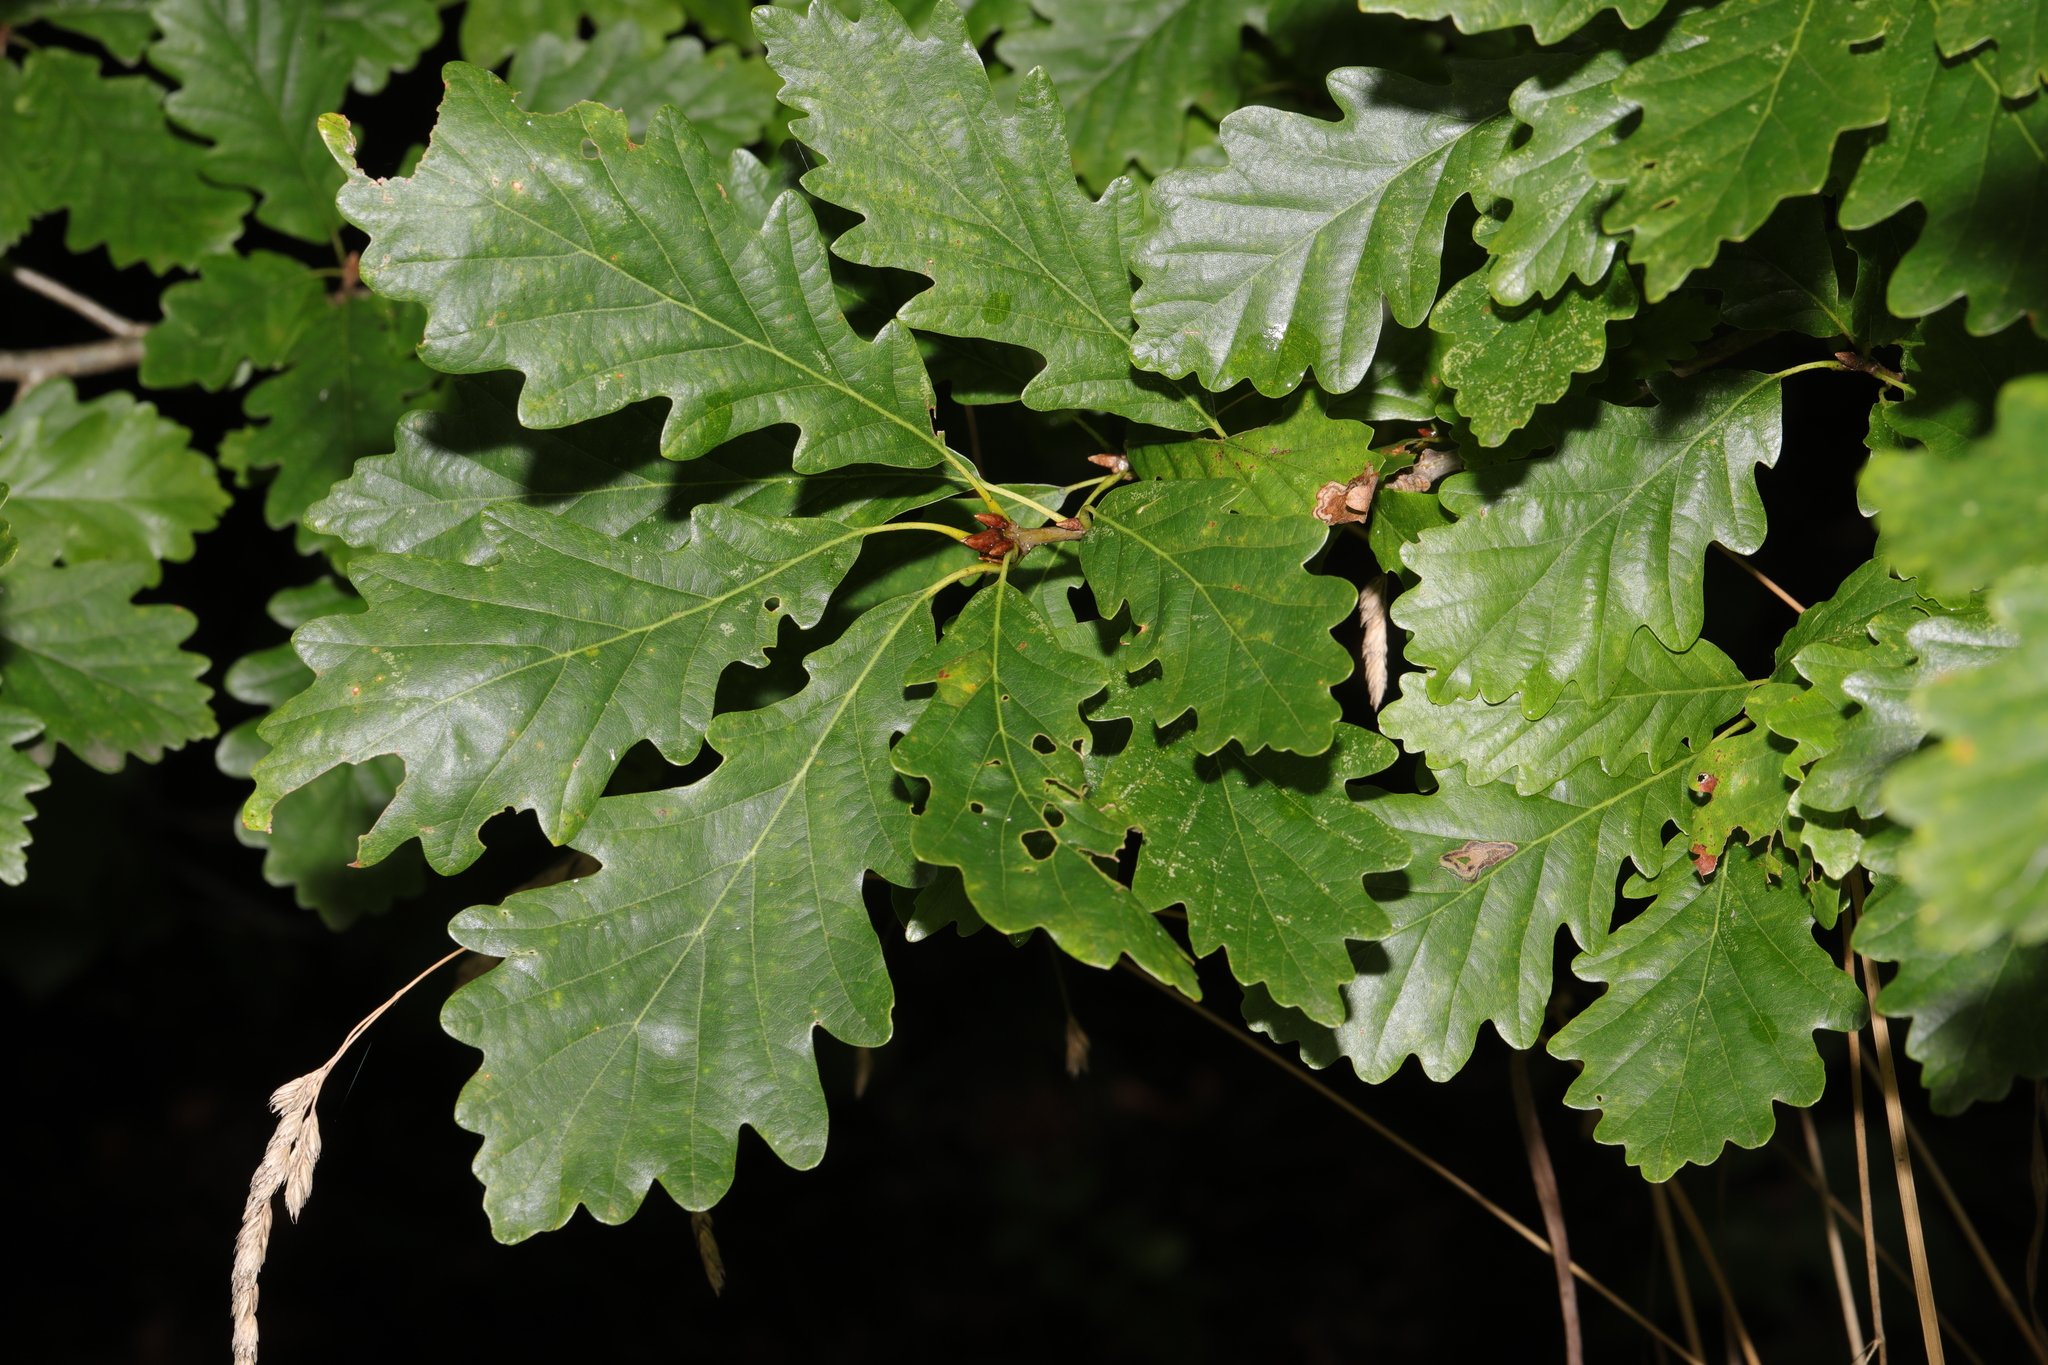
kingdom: Plantae
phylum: Tracheophyta
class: Magnoliopsida
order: Fagales
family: Fagaceae
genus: Quercus
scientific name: Quercus petraea
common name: Sessile oak
